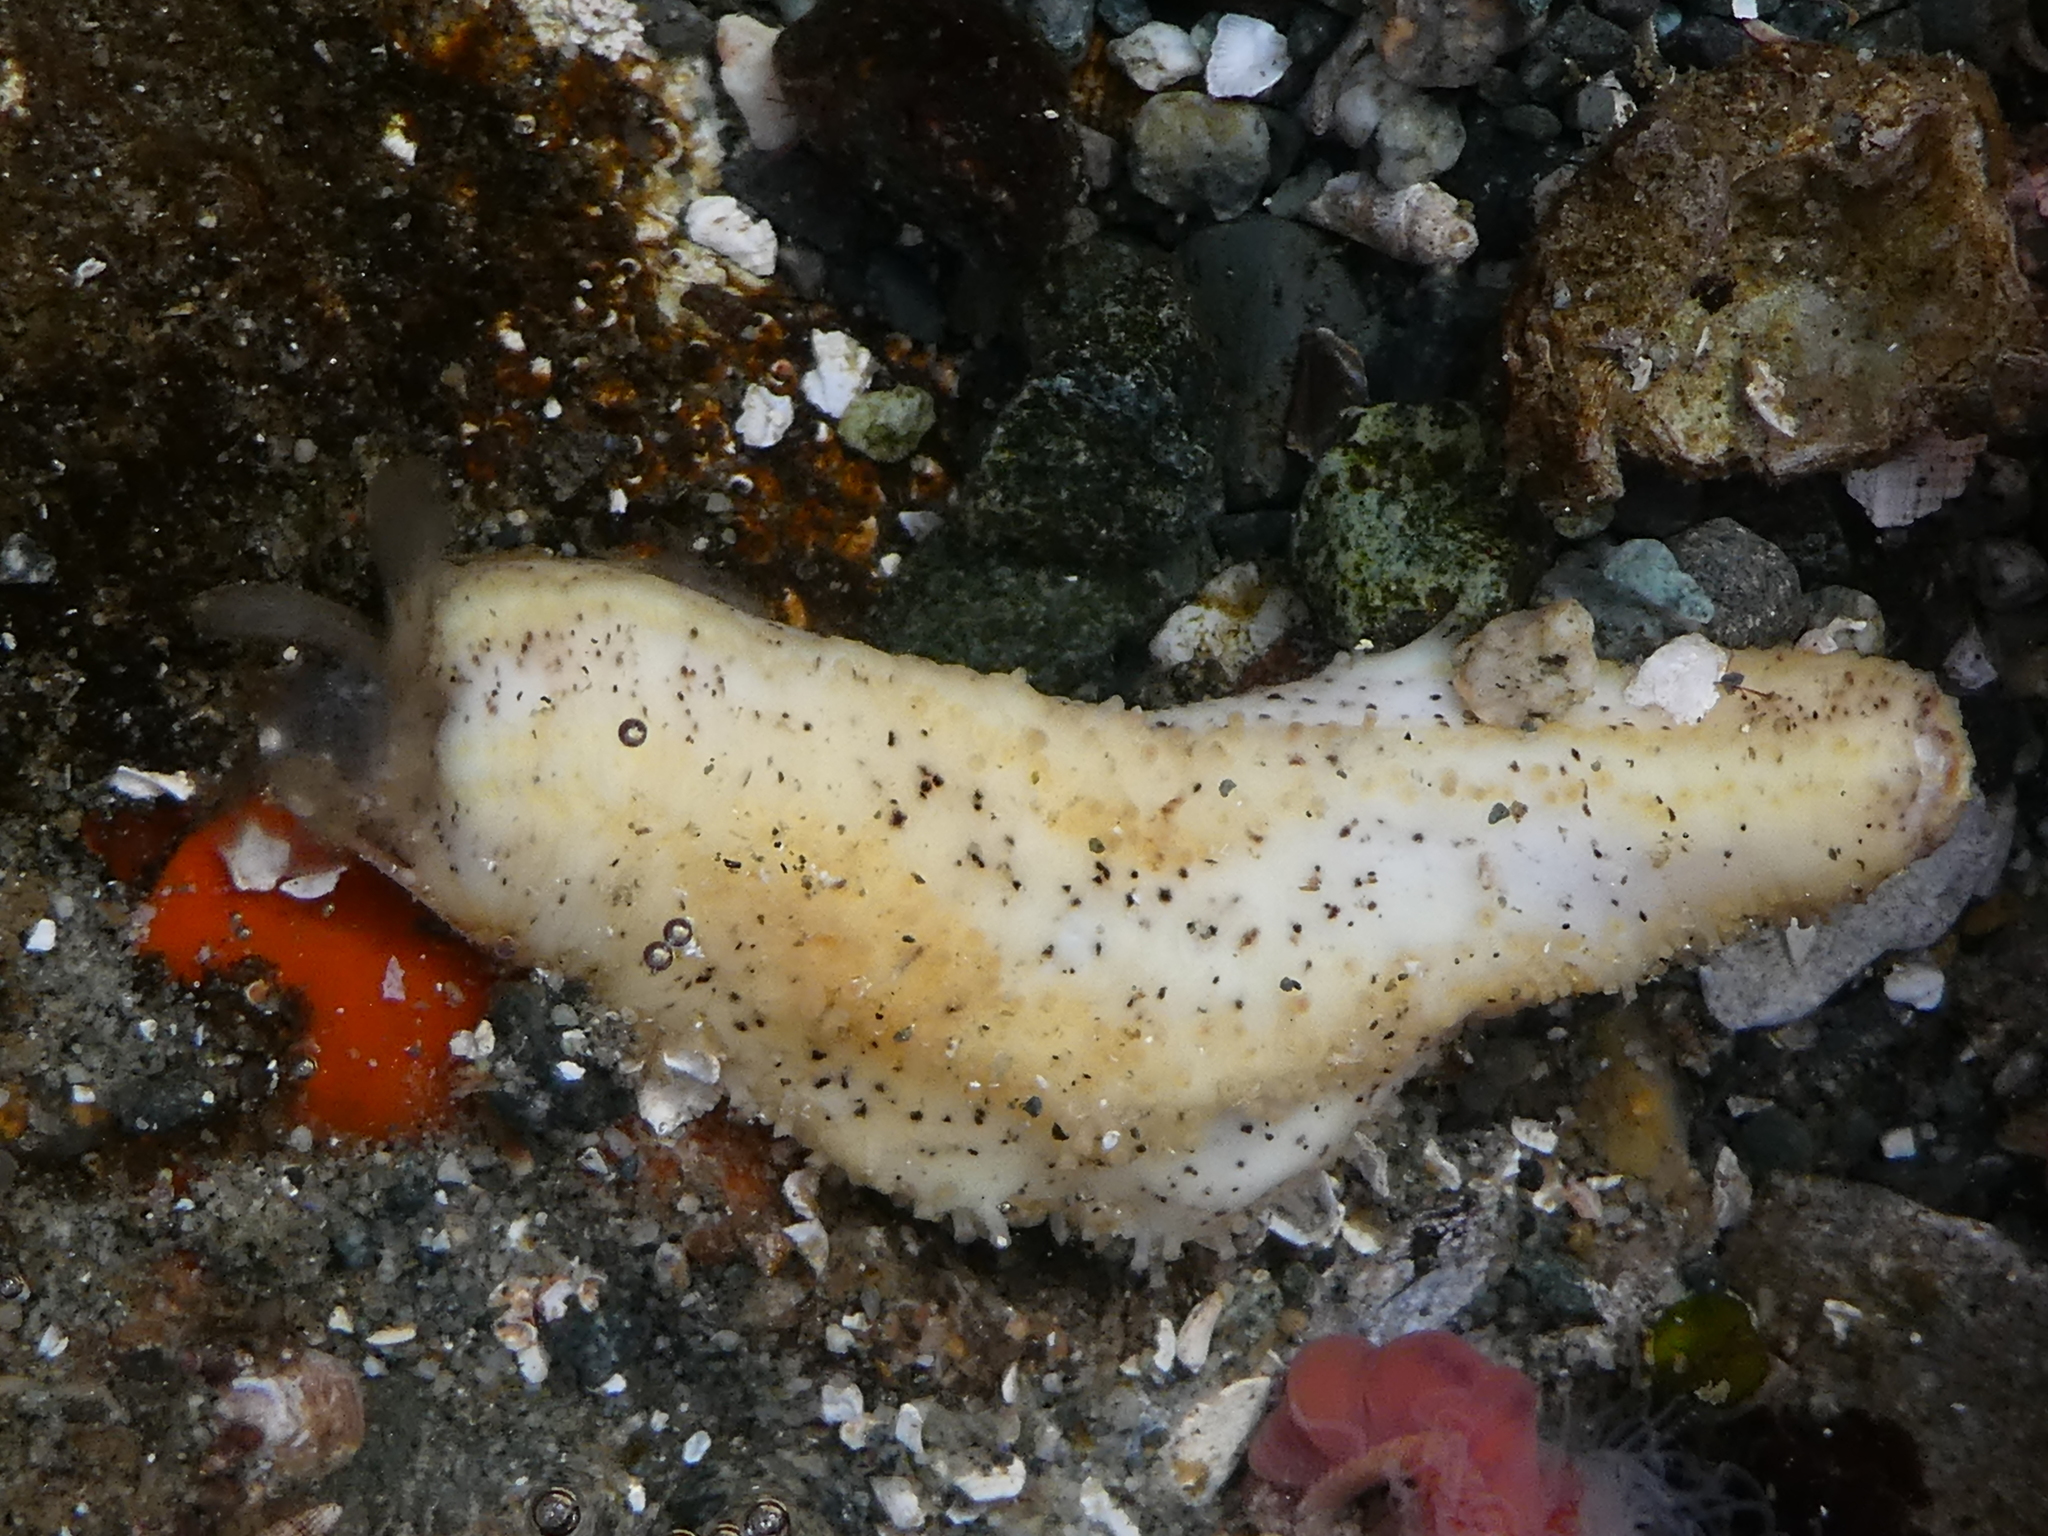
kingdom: Animalia
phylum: Echinodermata
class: Holothuroidea
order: Dendrochirotida
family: Cucumariidae
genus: Cucumaria
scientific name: Cucumaria piperata
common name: Peppered sea cucumber
